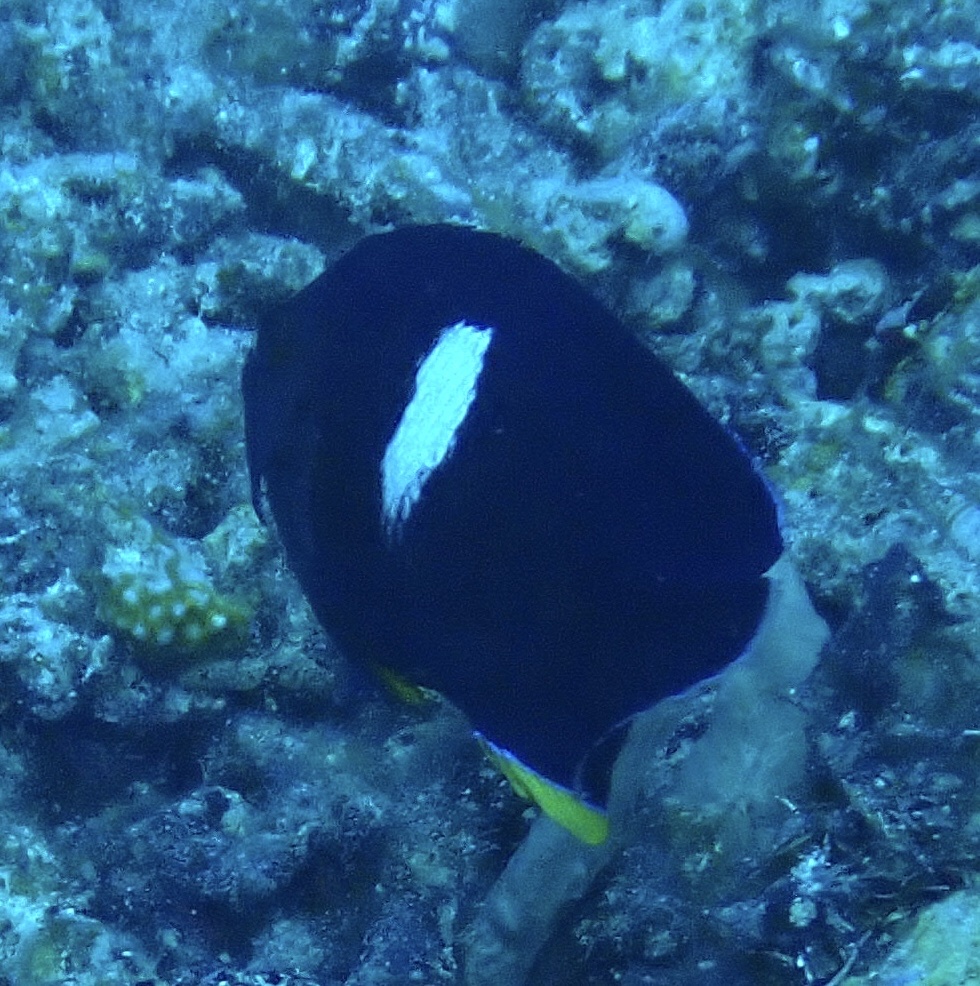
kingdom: Animalia
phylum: Chordata
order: Perciformes
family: Pomacanthidae
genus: Centropyge
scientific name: Centropyge tibicen
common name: Keyhole angelfish
